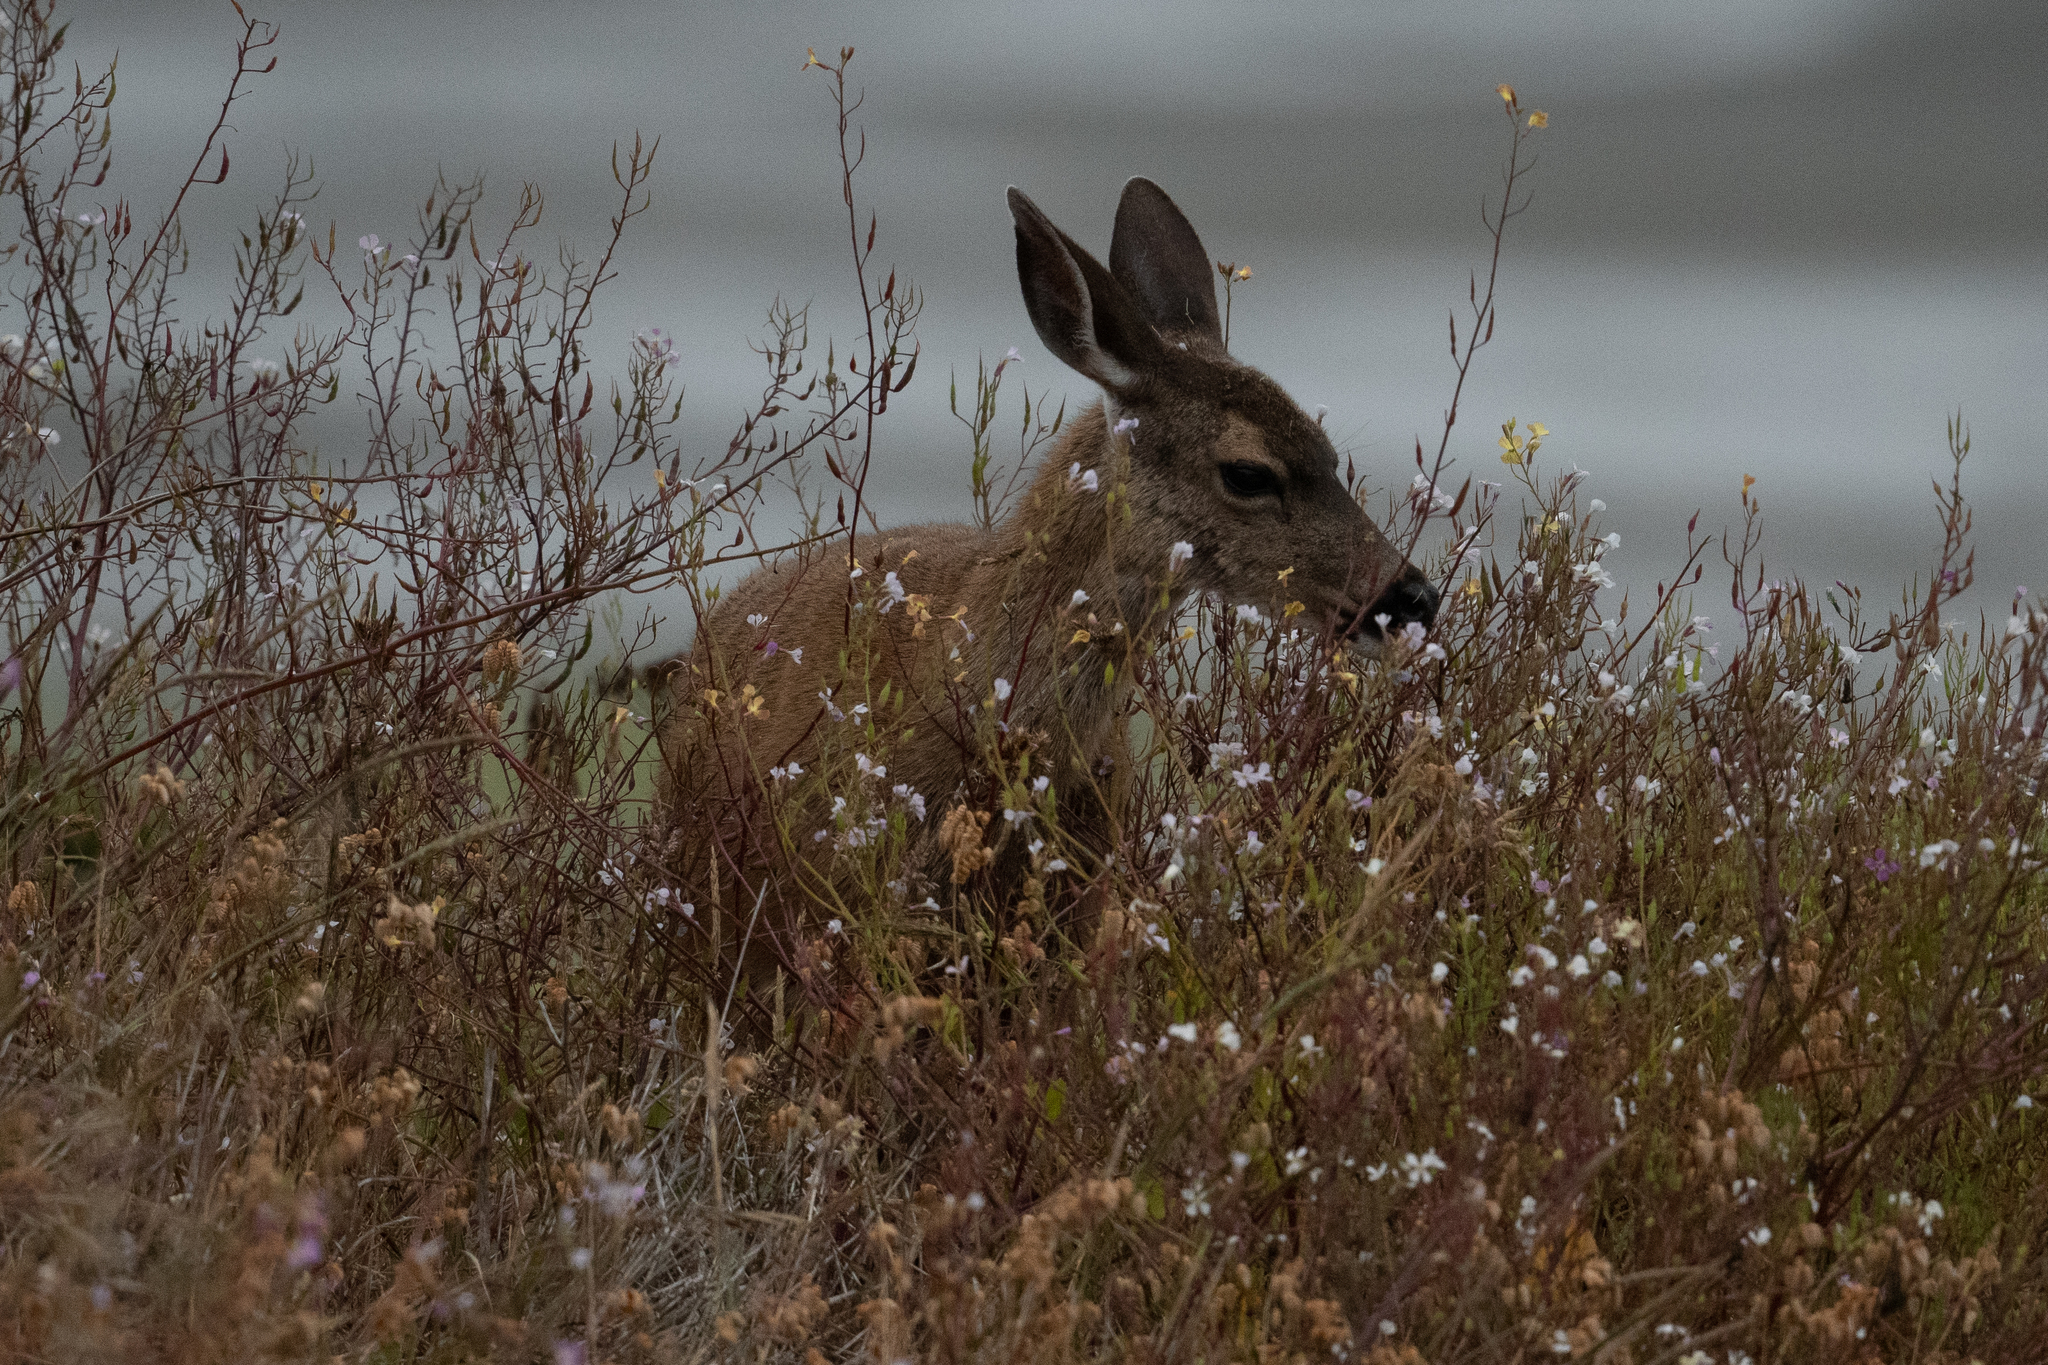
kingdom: Animalia
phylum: Chordata
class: Mammalia
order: Artiodactyla
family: Cervidae
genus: Odocoileus
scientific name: Odocoileus hemionus
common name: Mule deer
